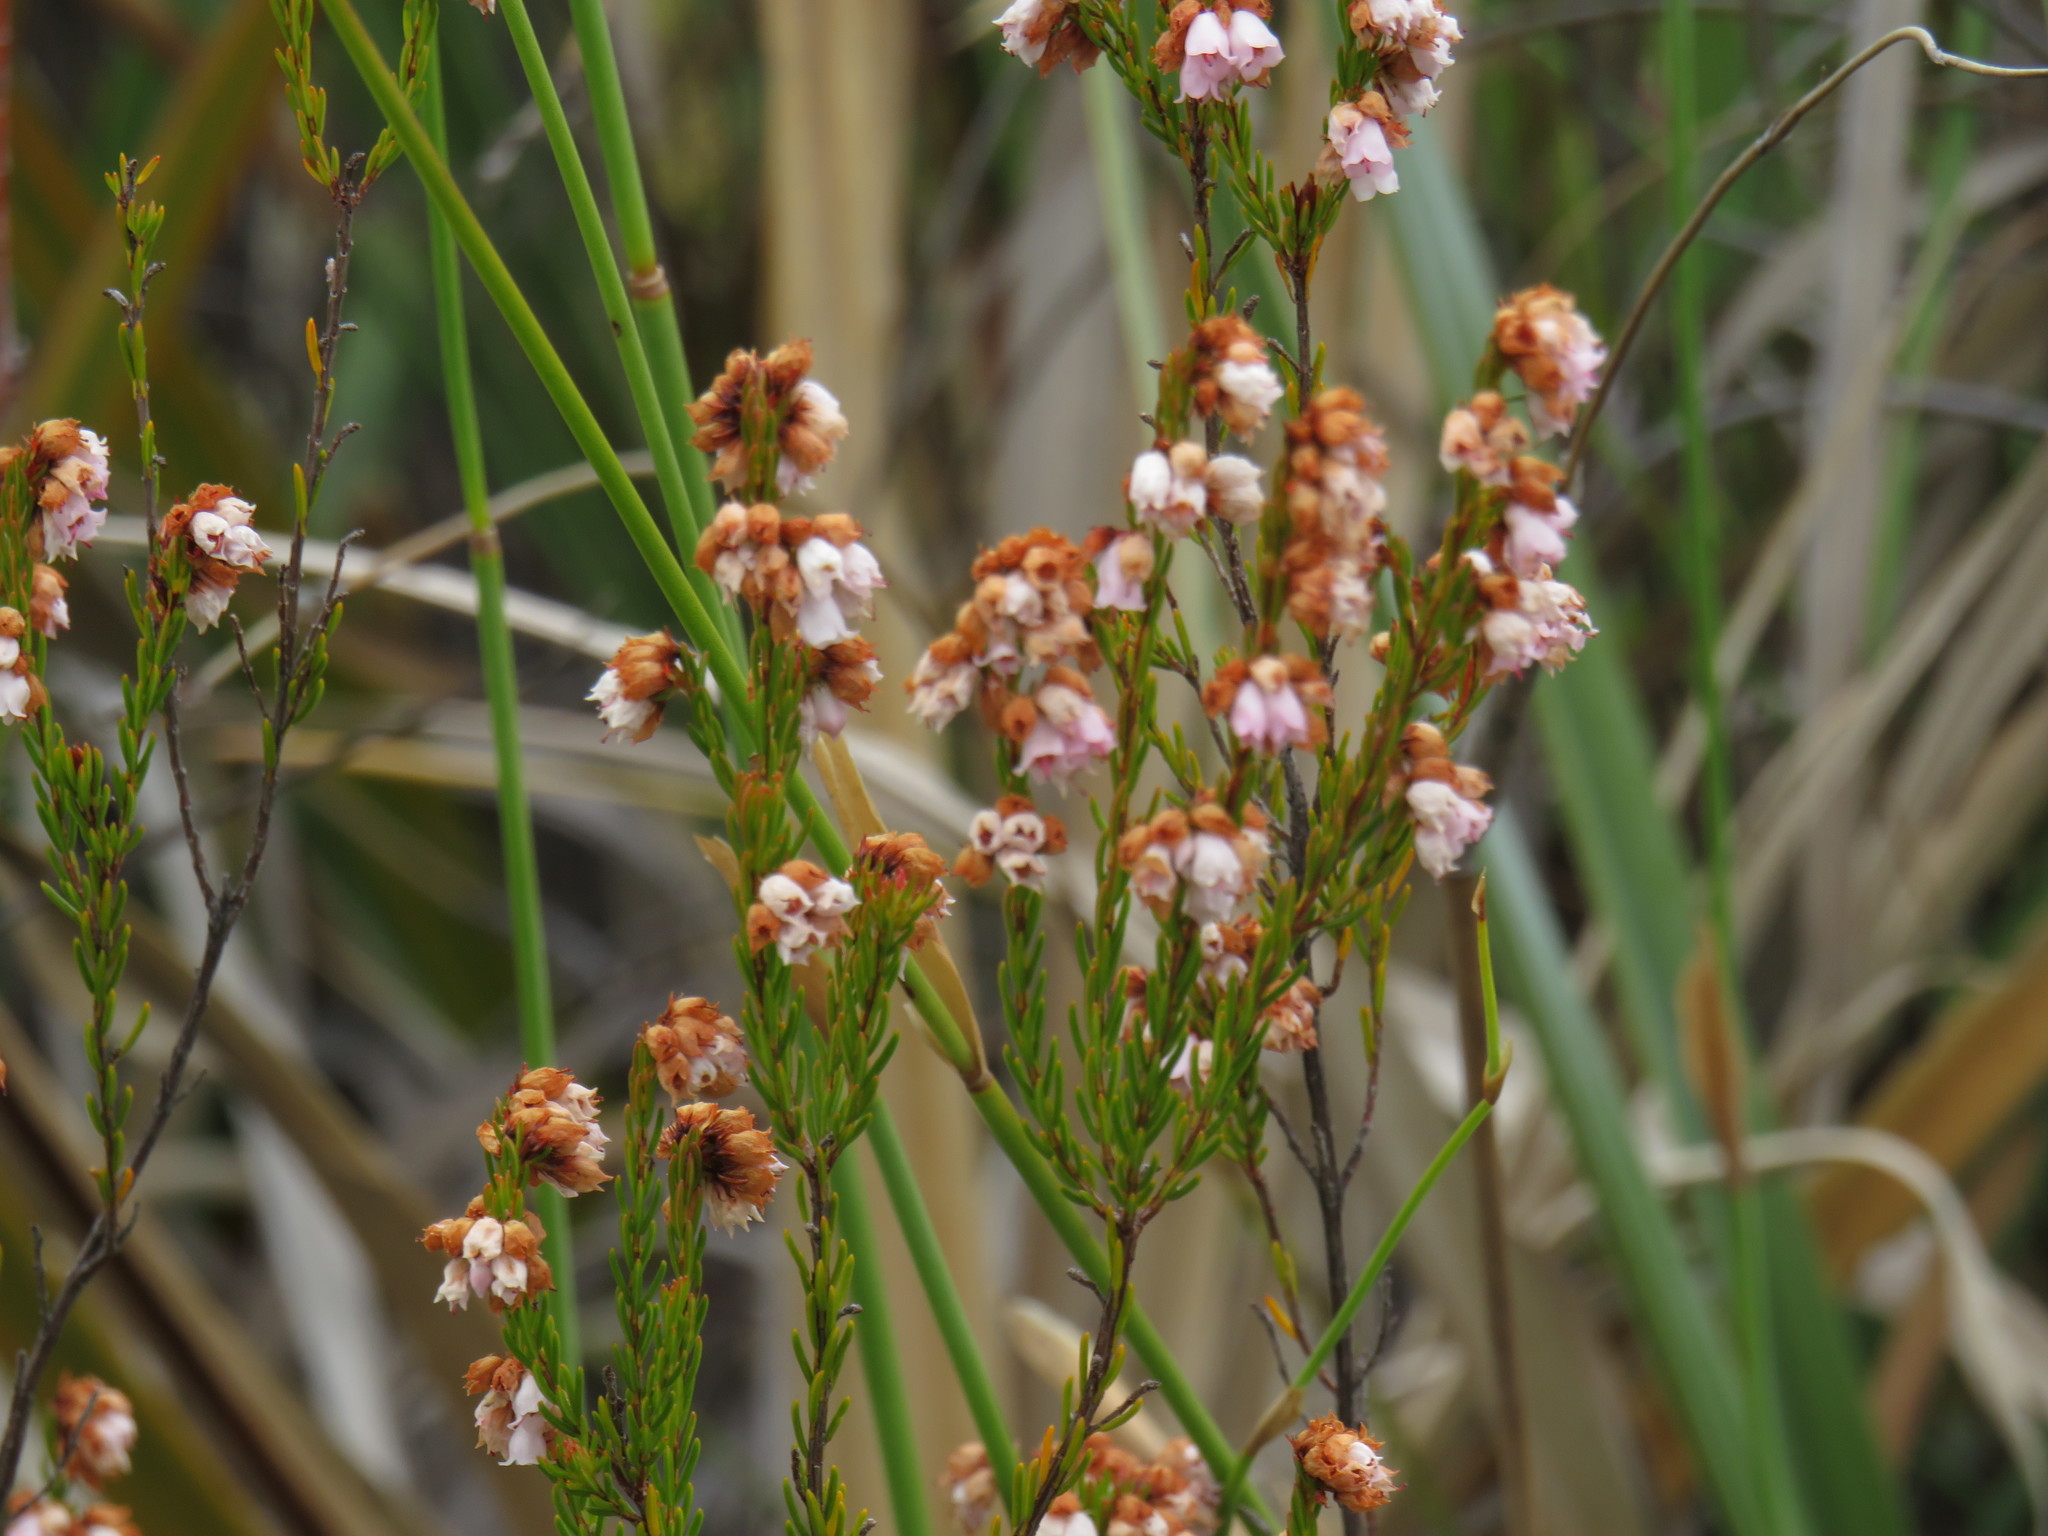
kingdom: Plantae
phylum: Tracheophyta
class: Magnoliopsida
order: Ericales
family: Ericaceae
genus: Erica
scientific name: Erica oxysepala
